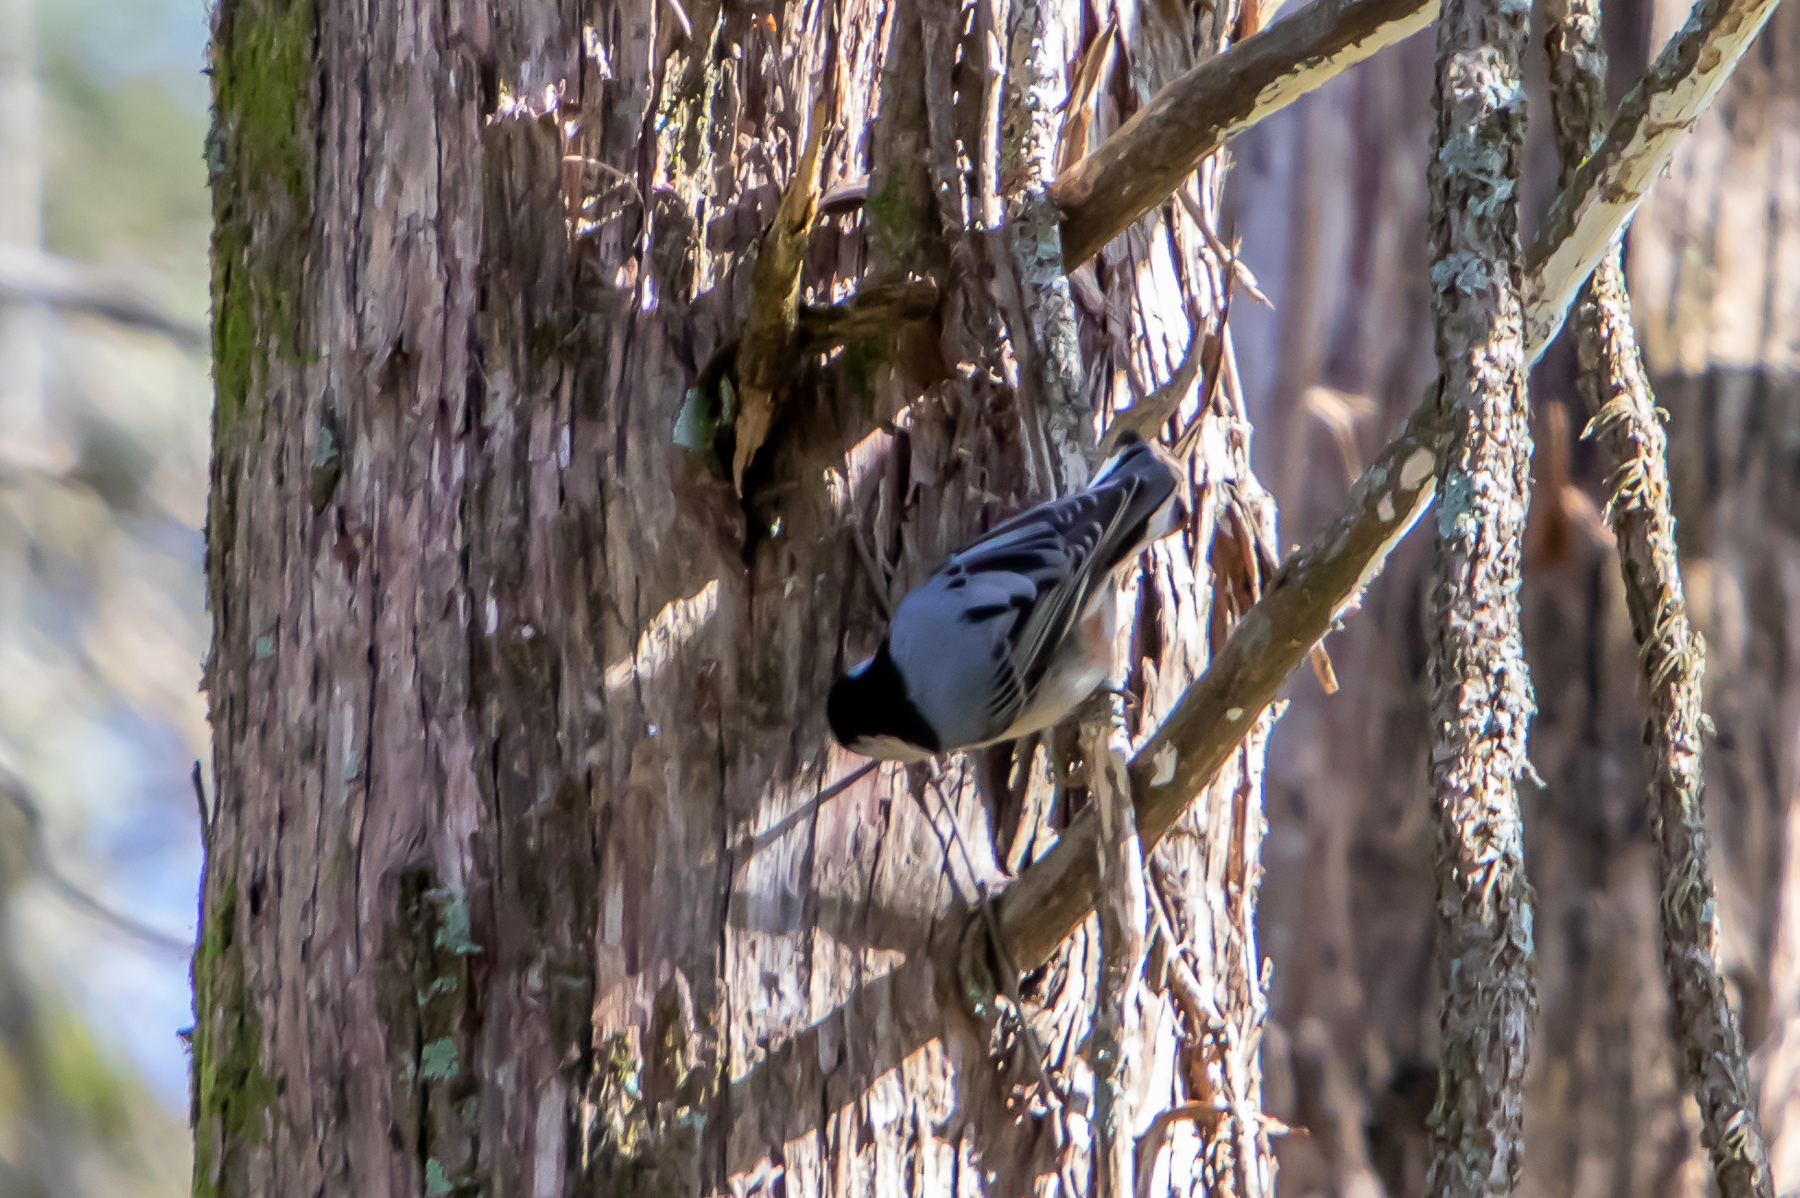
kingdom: Animalia
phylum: Chordata
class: Aves
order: Passeriformes
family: Sittidae
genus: Sitta
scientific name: Sitta carolinensis
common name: White-breasted nuthatch
